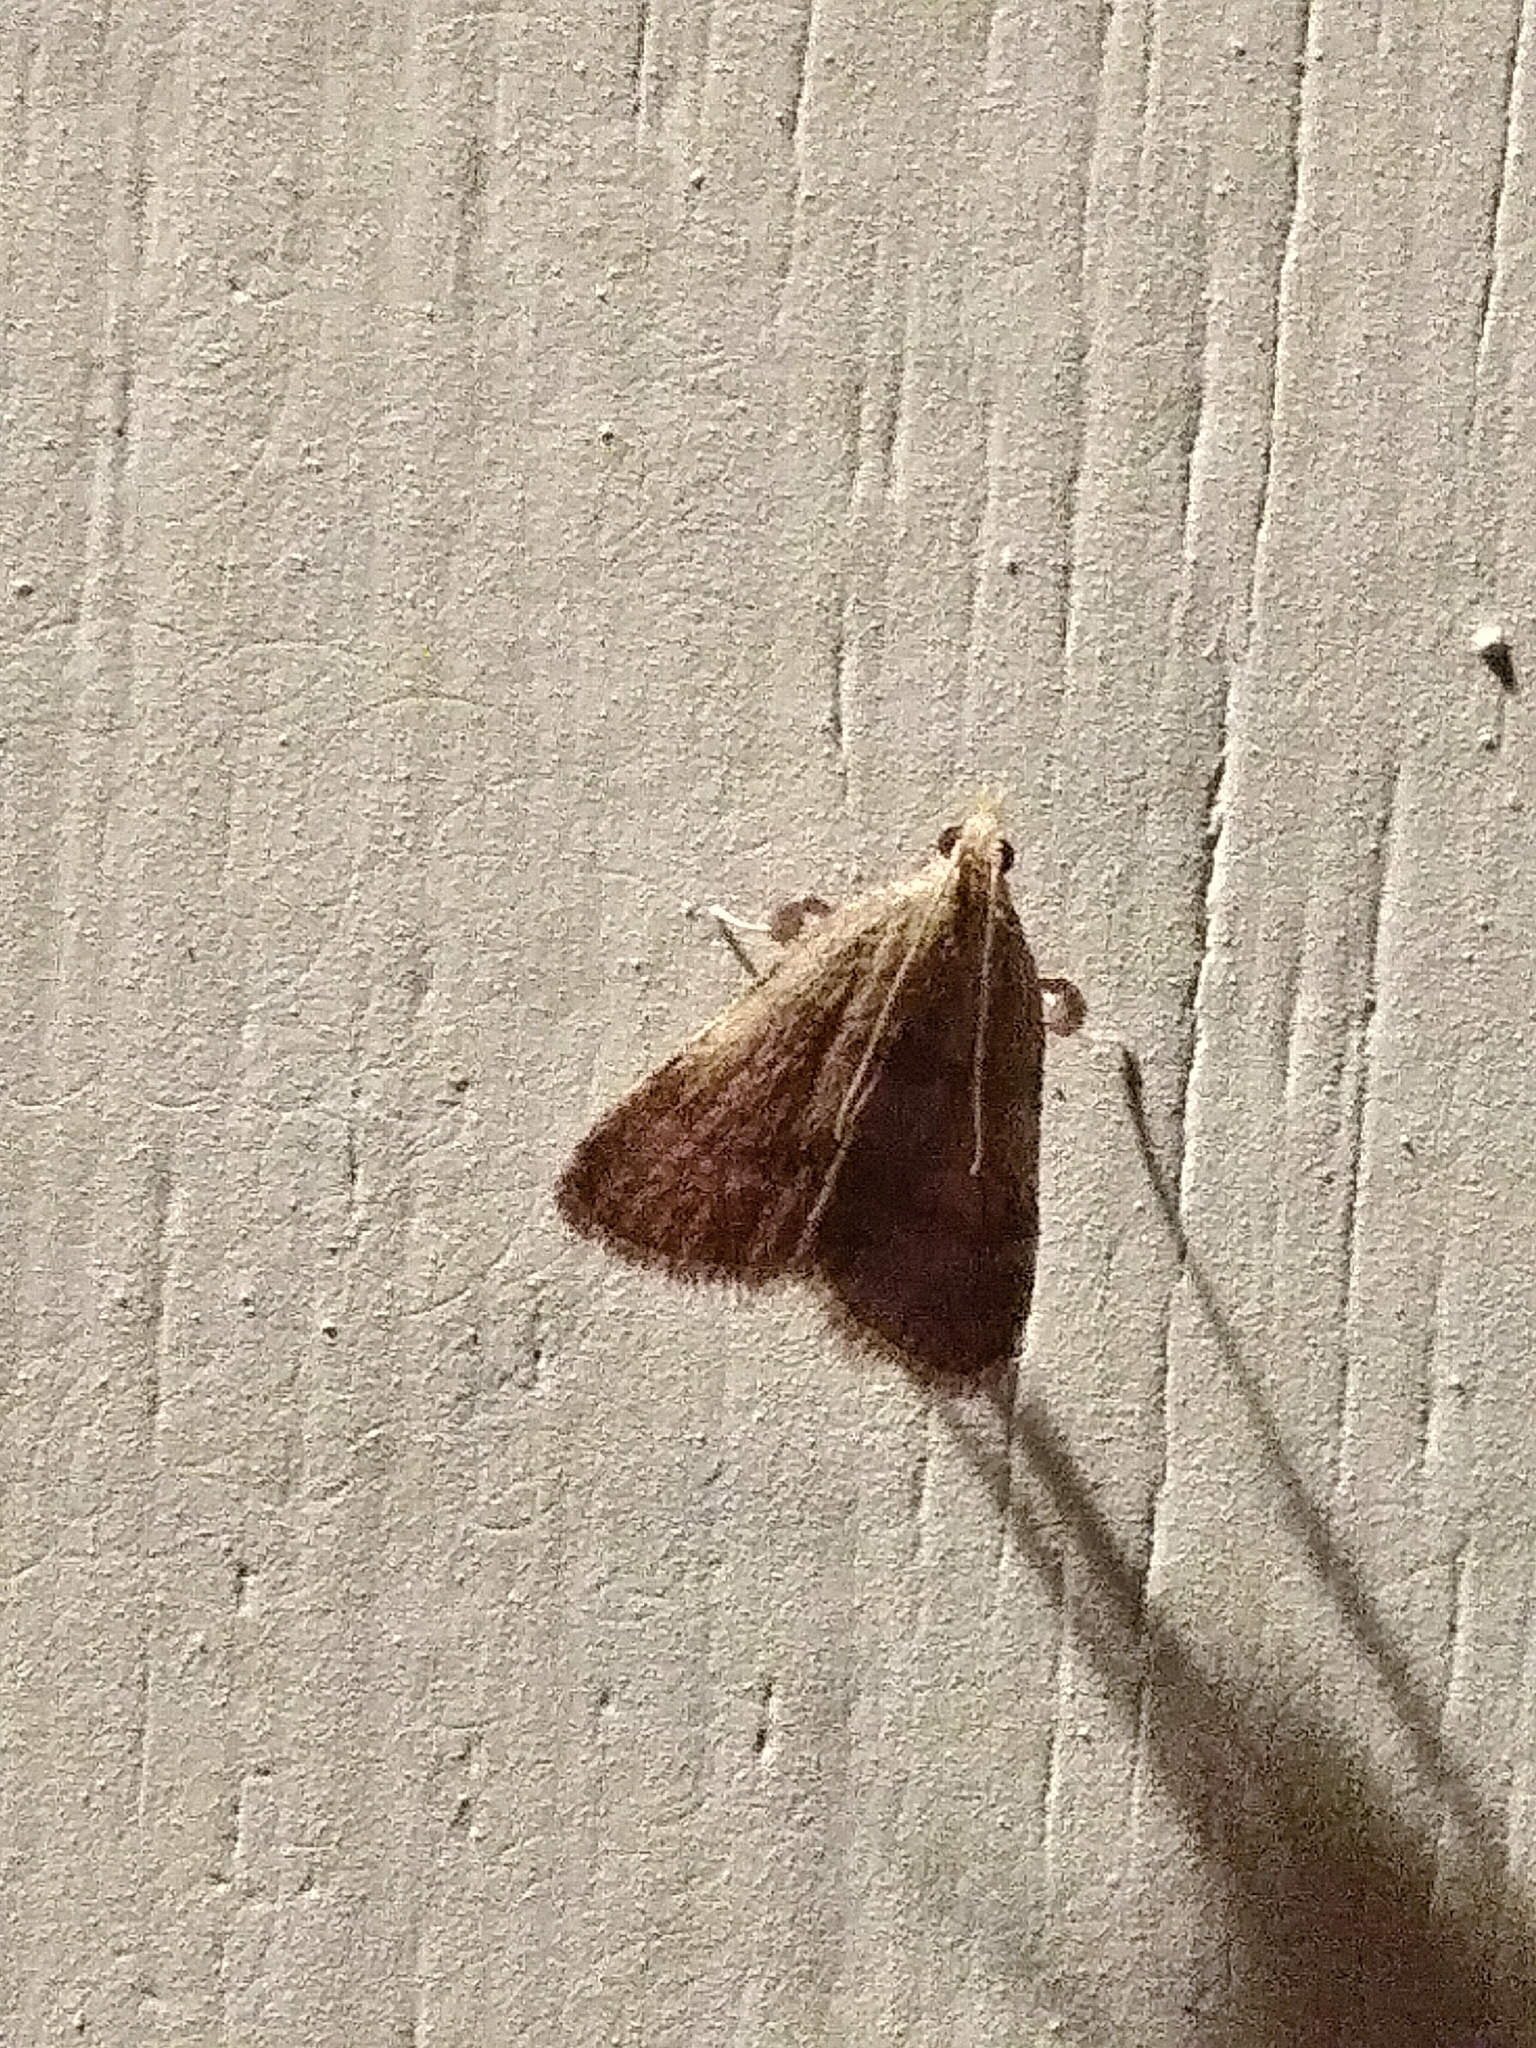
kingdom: Animalia
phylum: Arthropoda
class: Insecta
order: Lepidoptera
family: Pyralidae
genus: Condylolomia
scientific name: Condylolomia participialis
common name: Drab condylolomia moth
